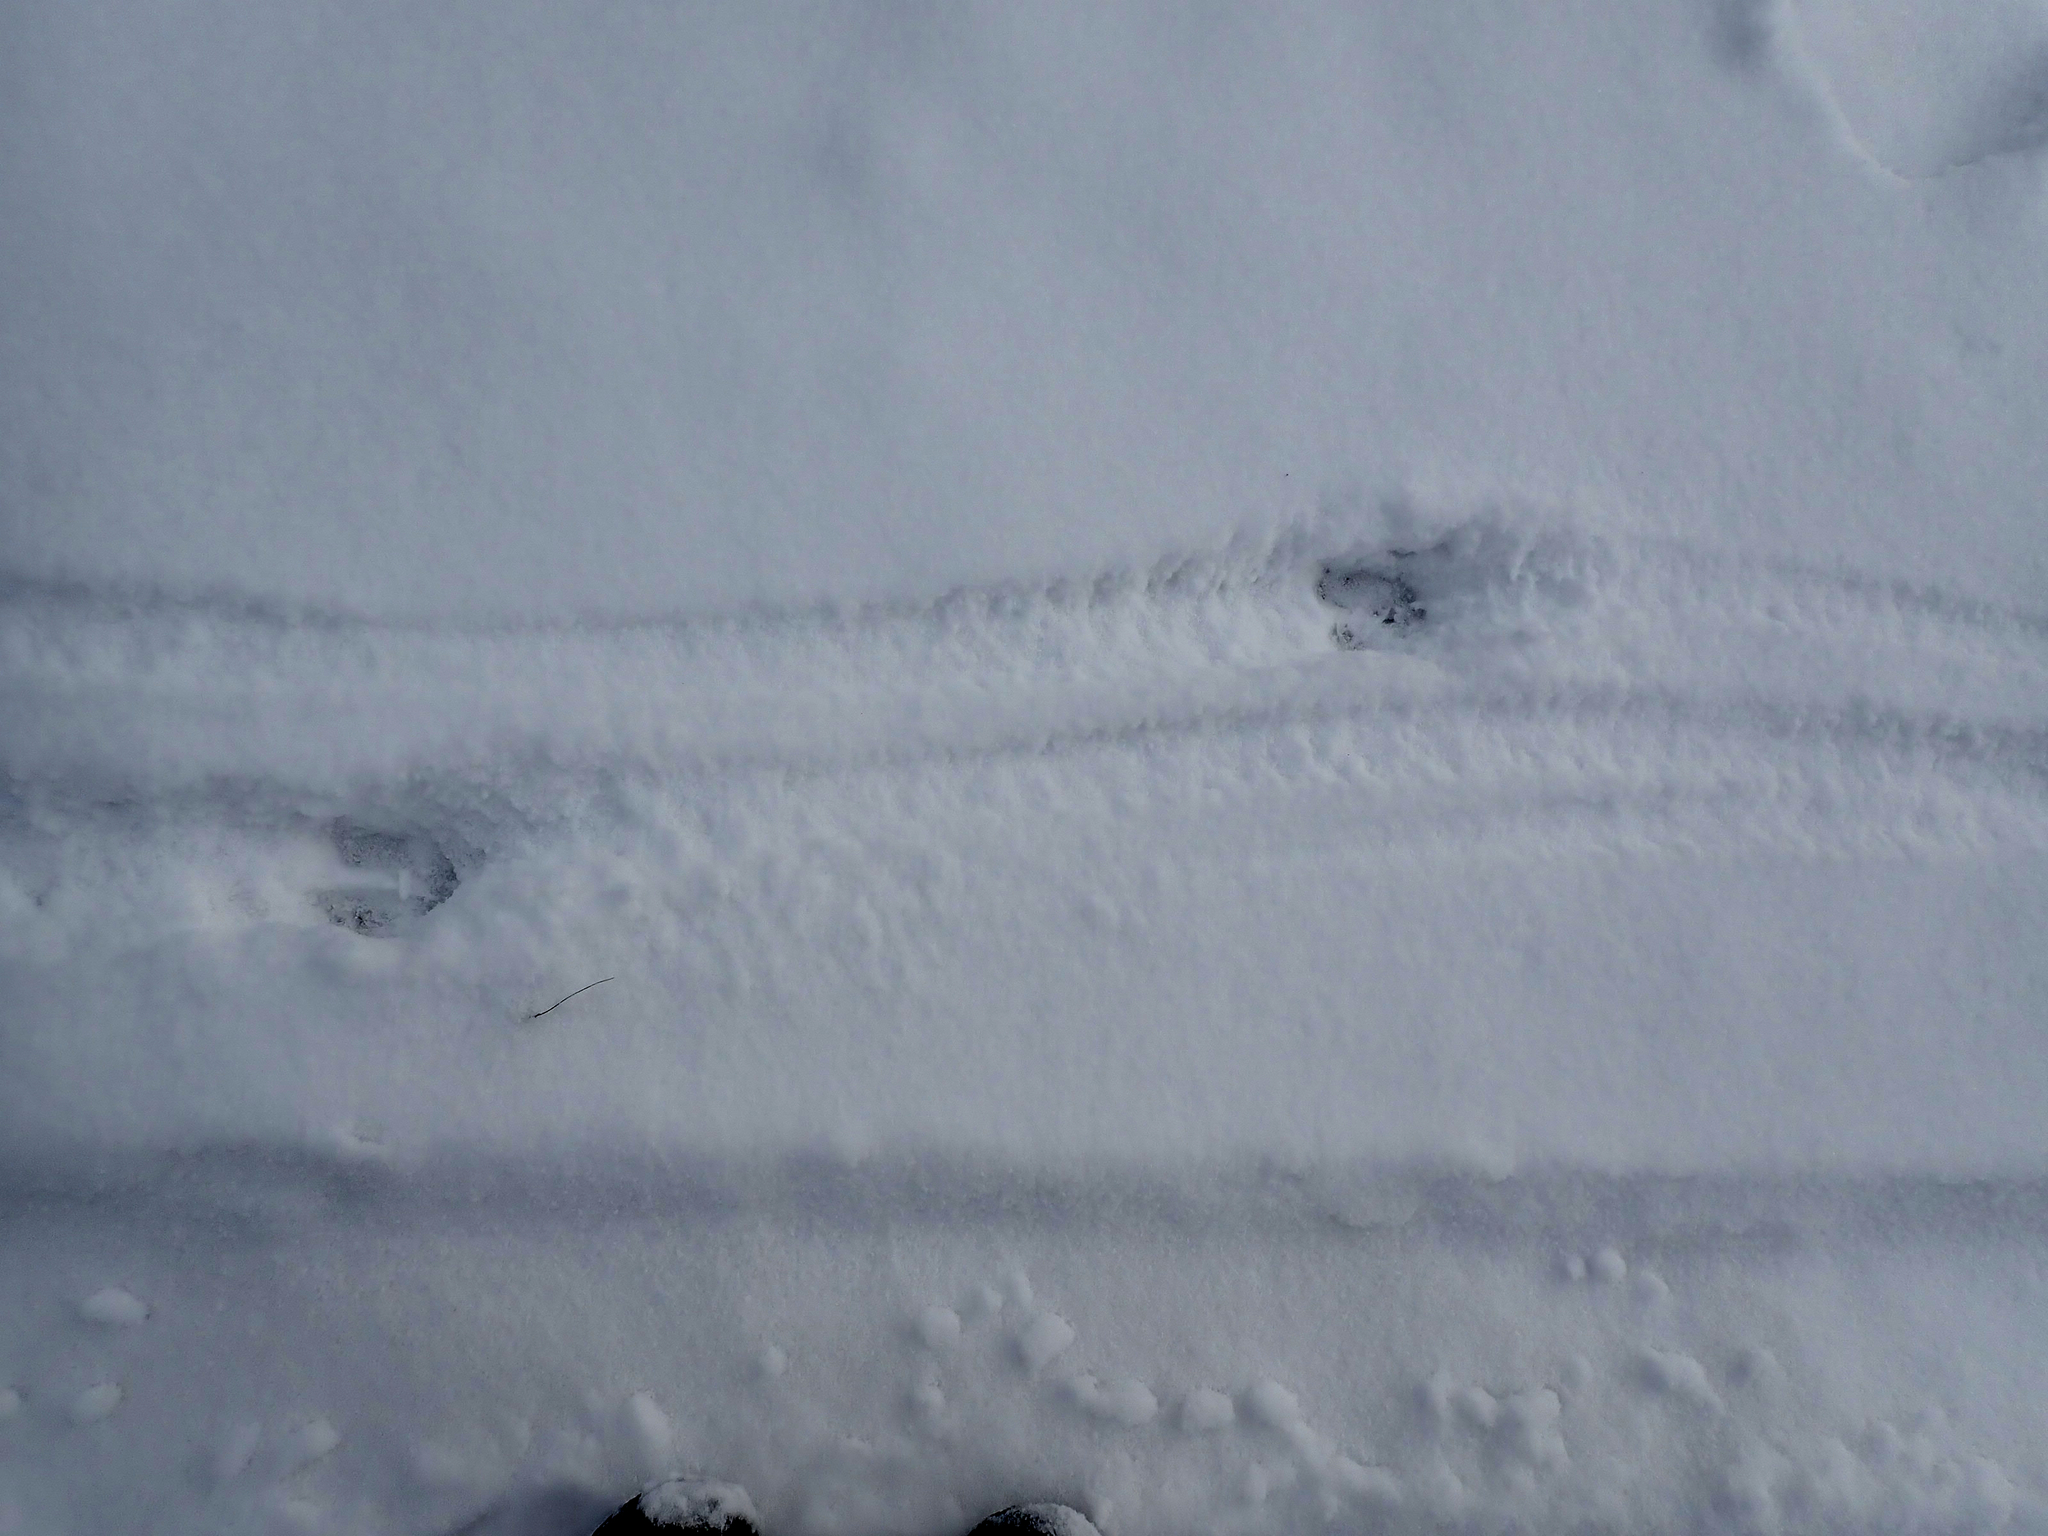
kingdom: Animalia
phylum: Chordata
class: Mammalia
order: Artiodactyla
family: Cervidae
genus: Odocoileus
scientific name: Odocoileus virginianus
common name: White-tailed deer
